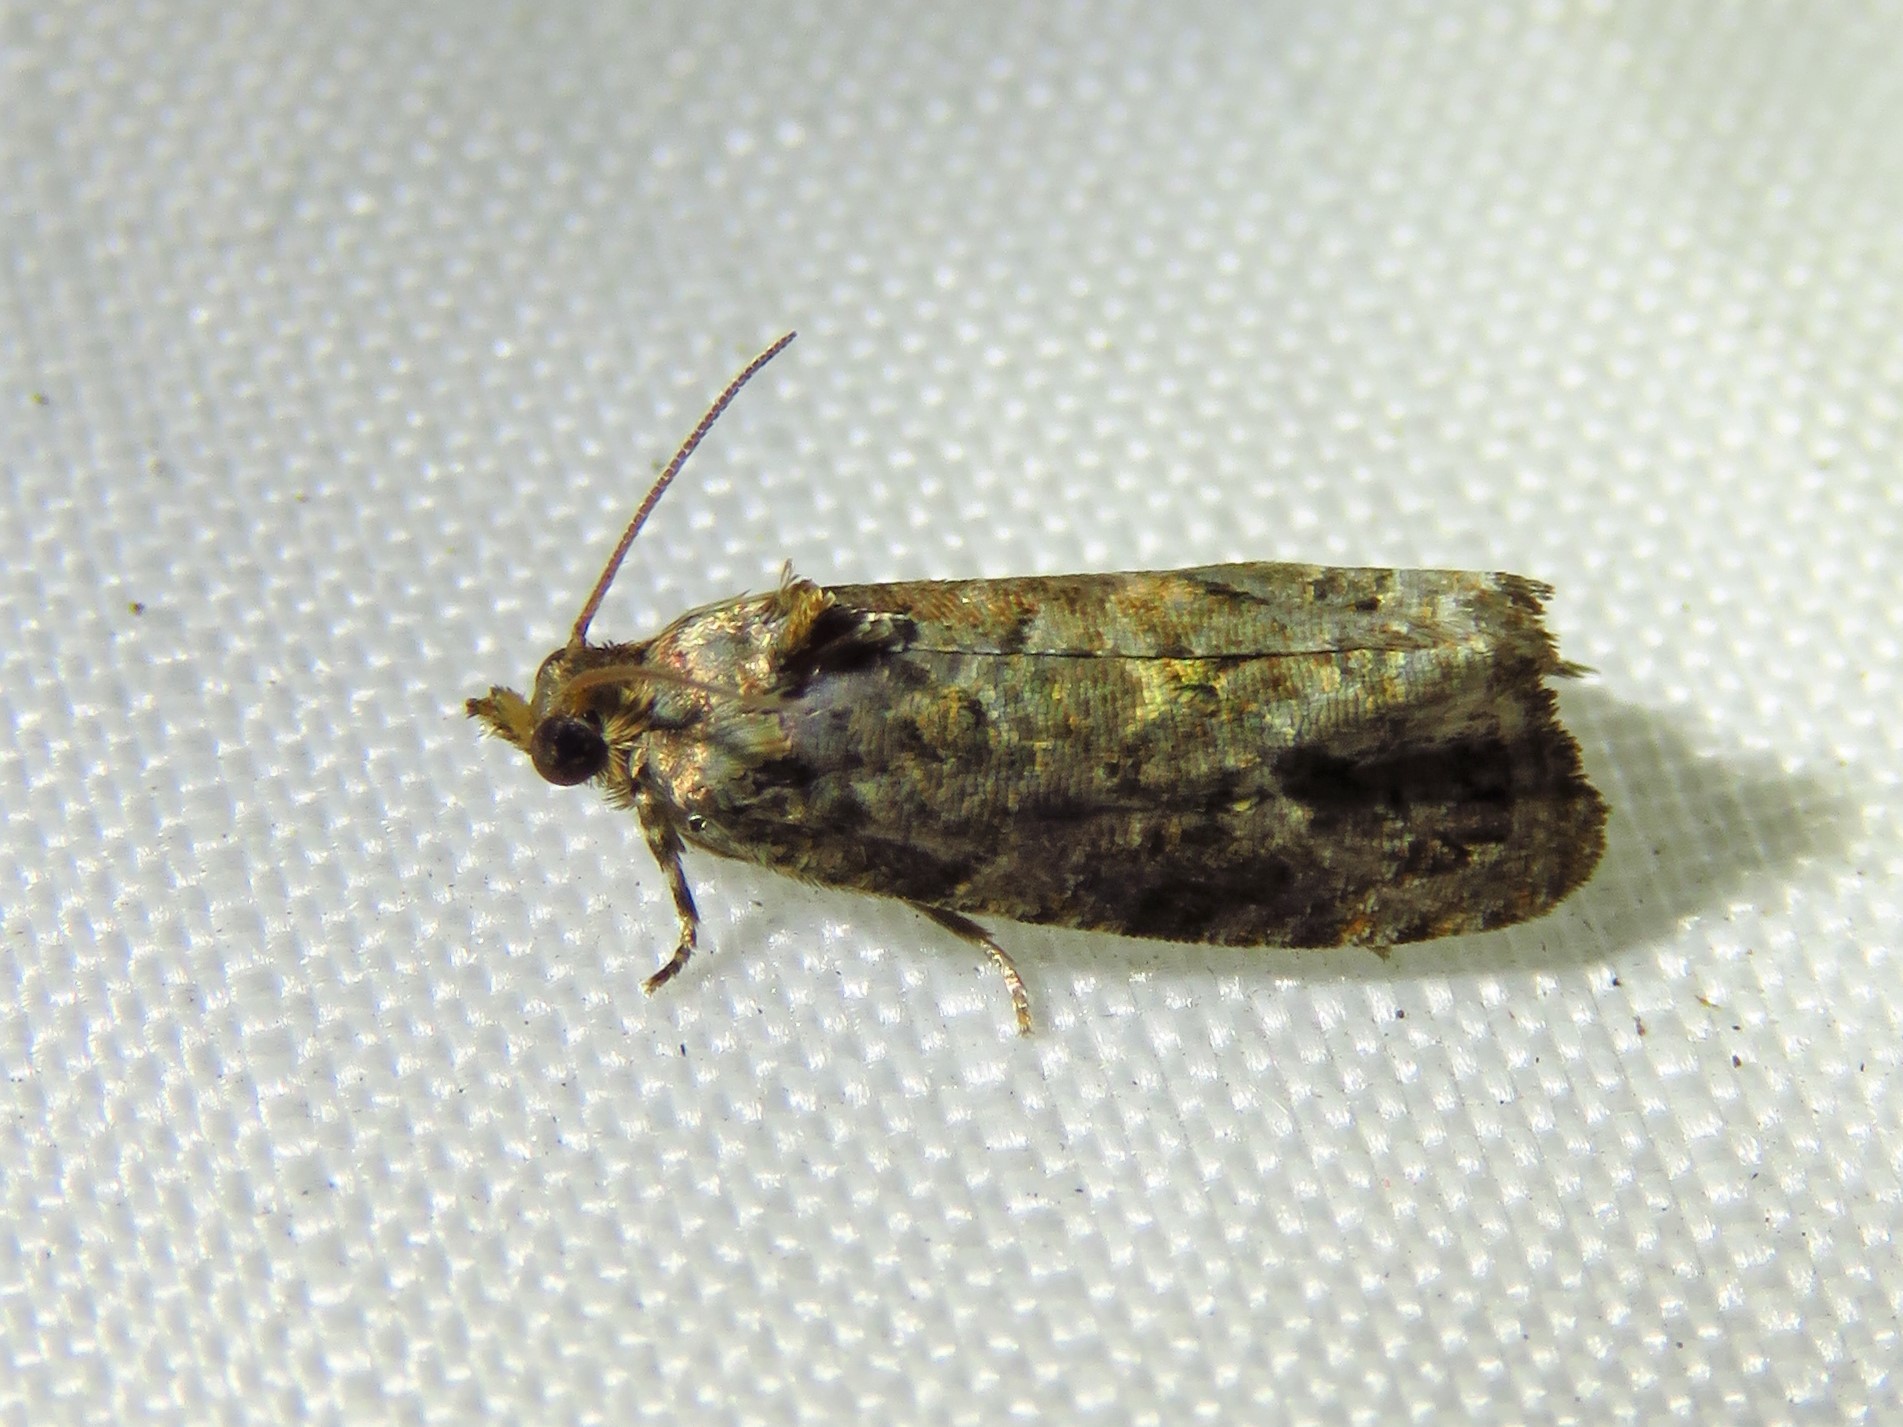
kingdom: Animalia
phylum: Arthropoda
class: Insecta
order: Lepidoptera
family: Tortricidae
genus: Endothenia
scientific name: Endothenia hebesana
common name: Verbena bud moth
